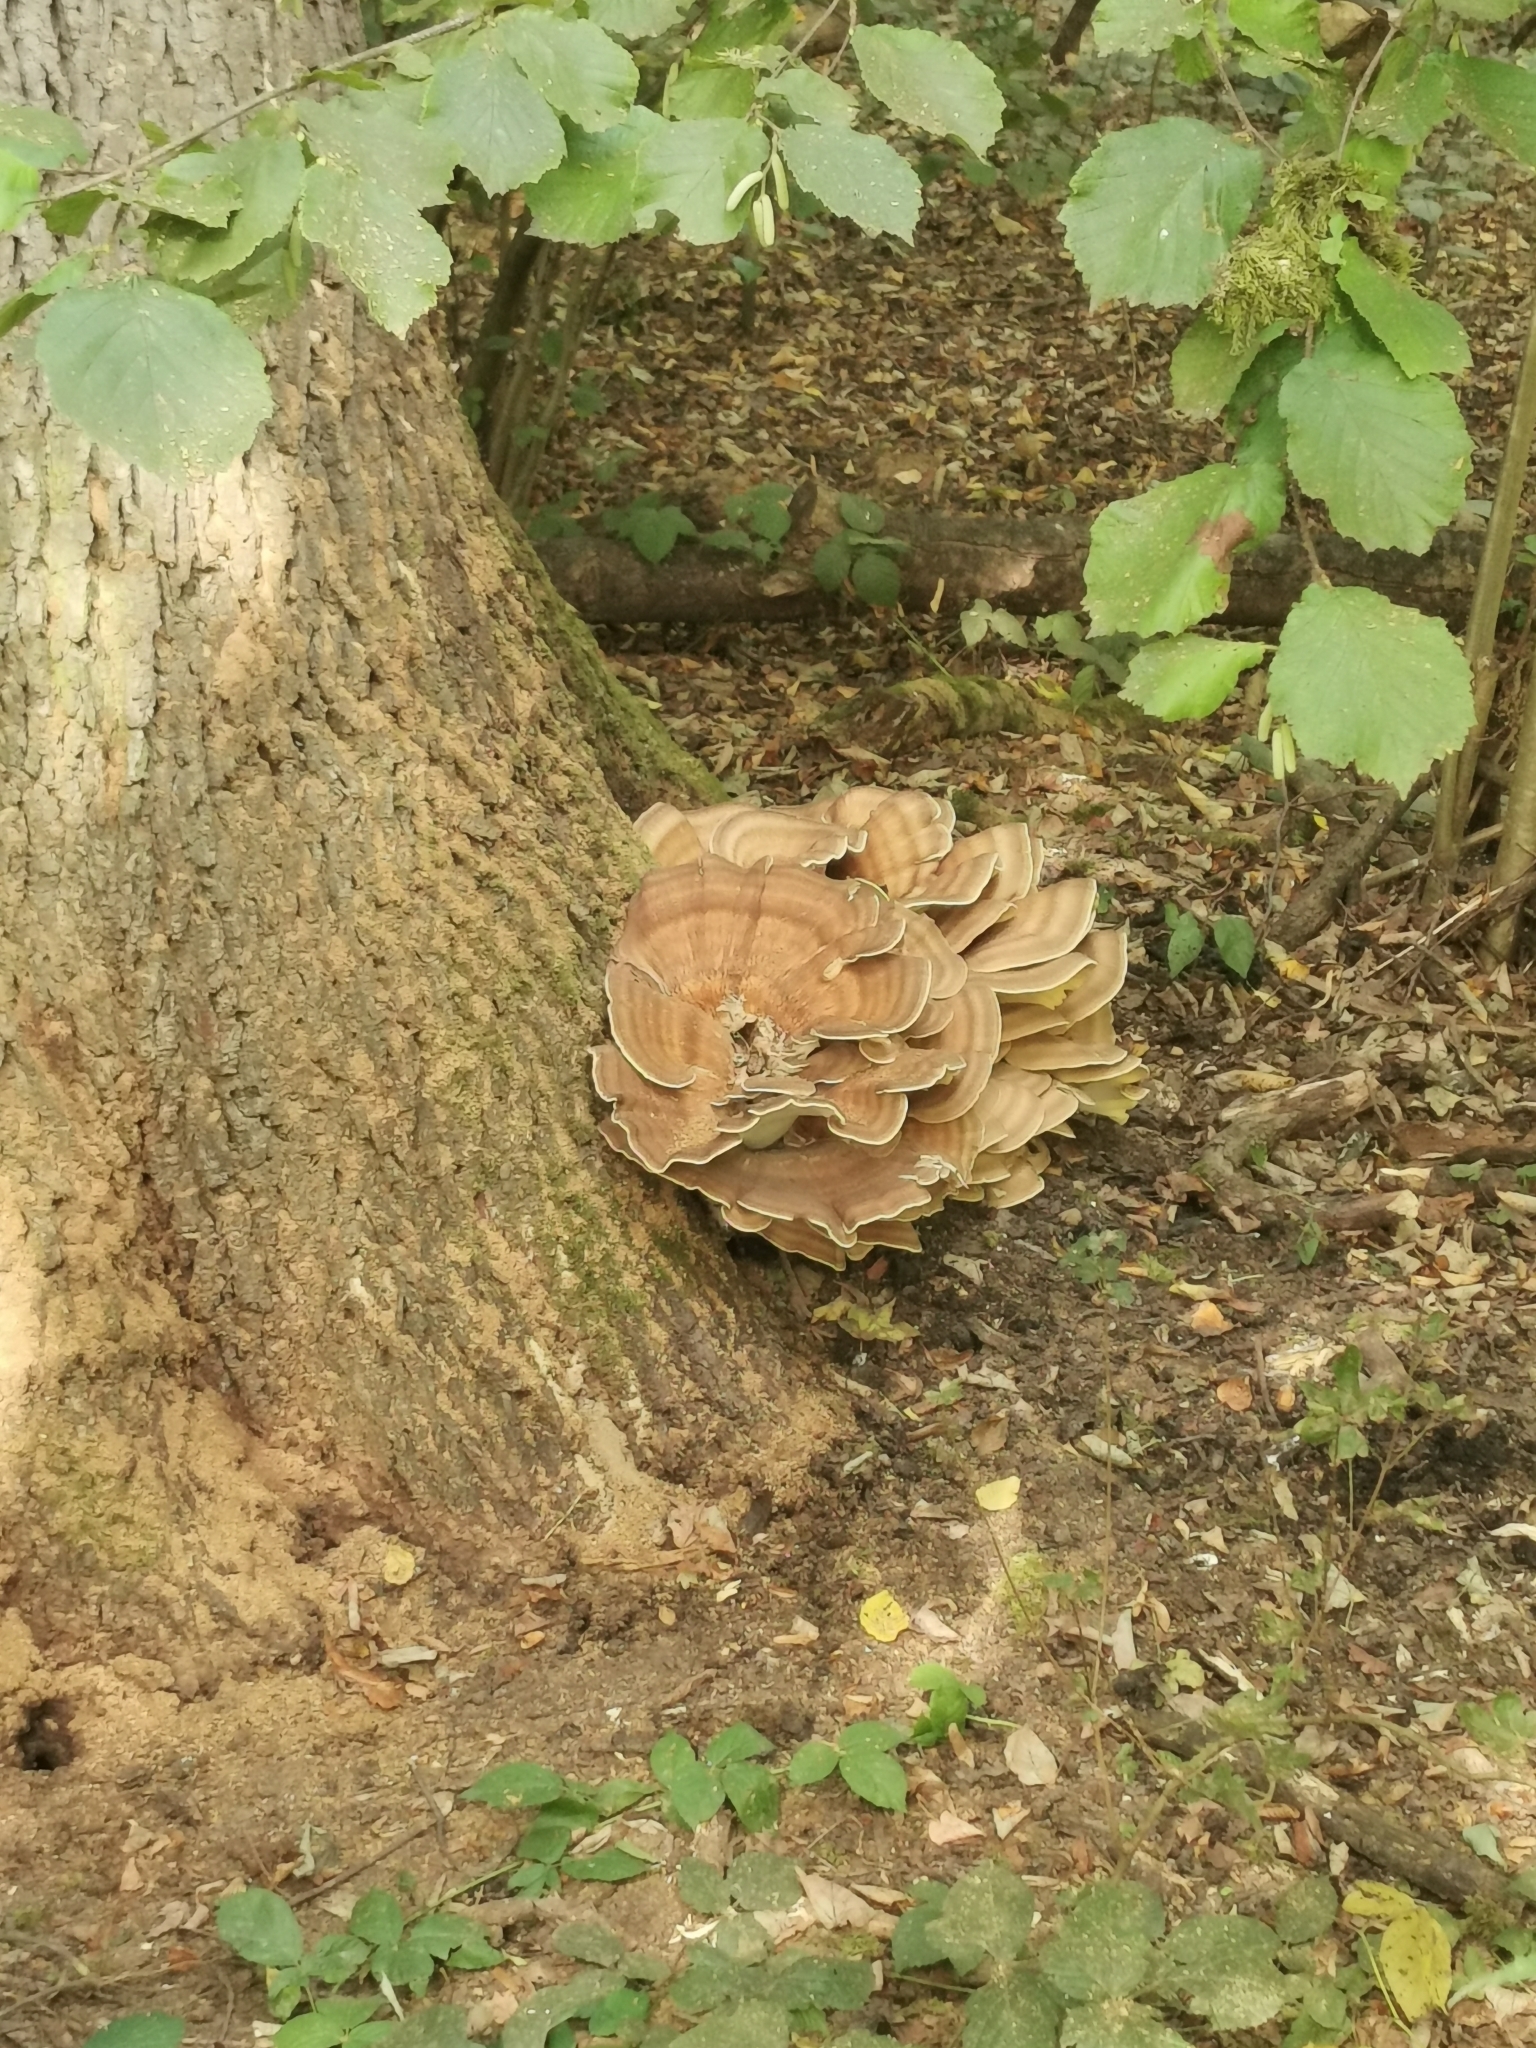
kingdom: Fungi
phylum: Basidiomycota
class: Agaricomycetes
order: Polyporales
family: Meripilaceae
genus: Meripilus
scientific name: Meripilus giganteus
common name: Giant polypore
